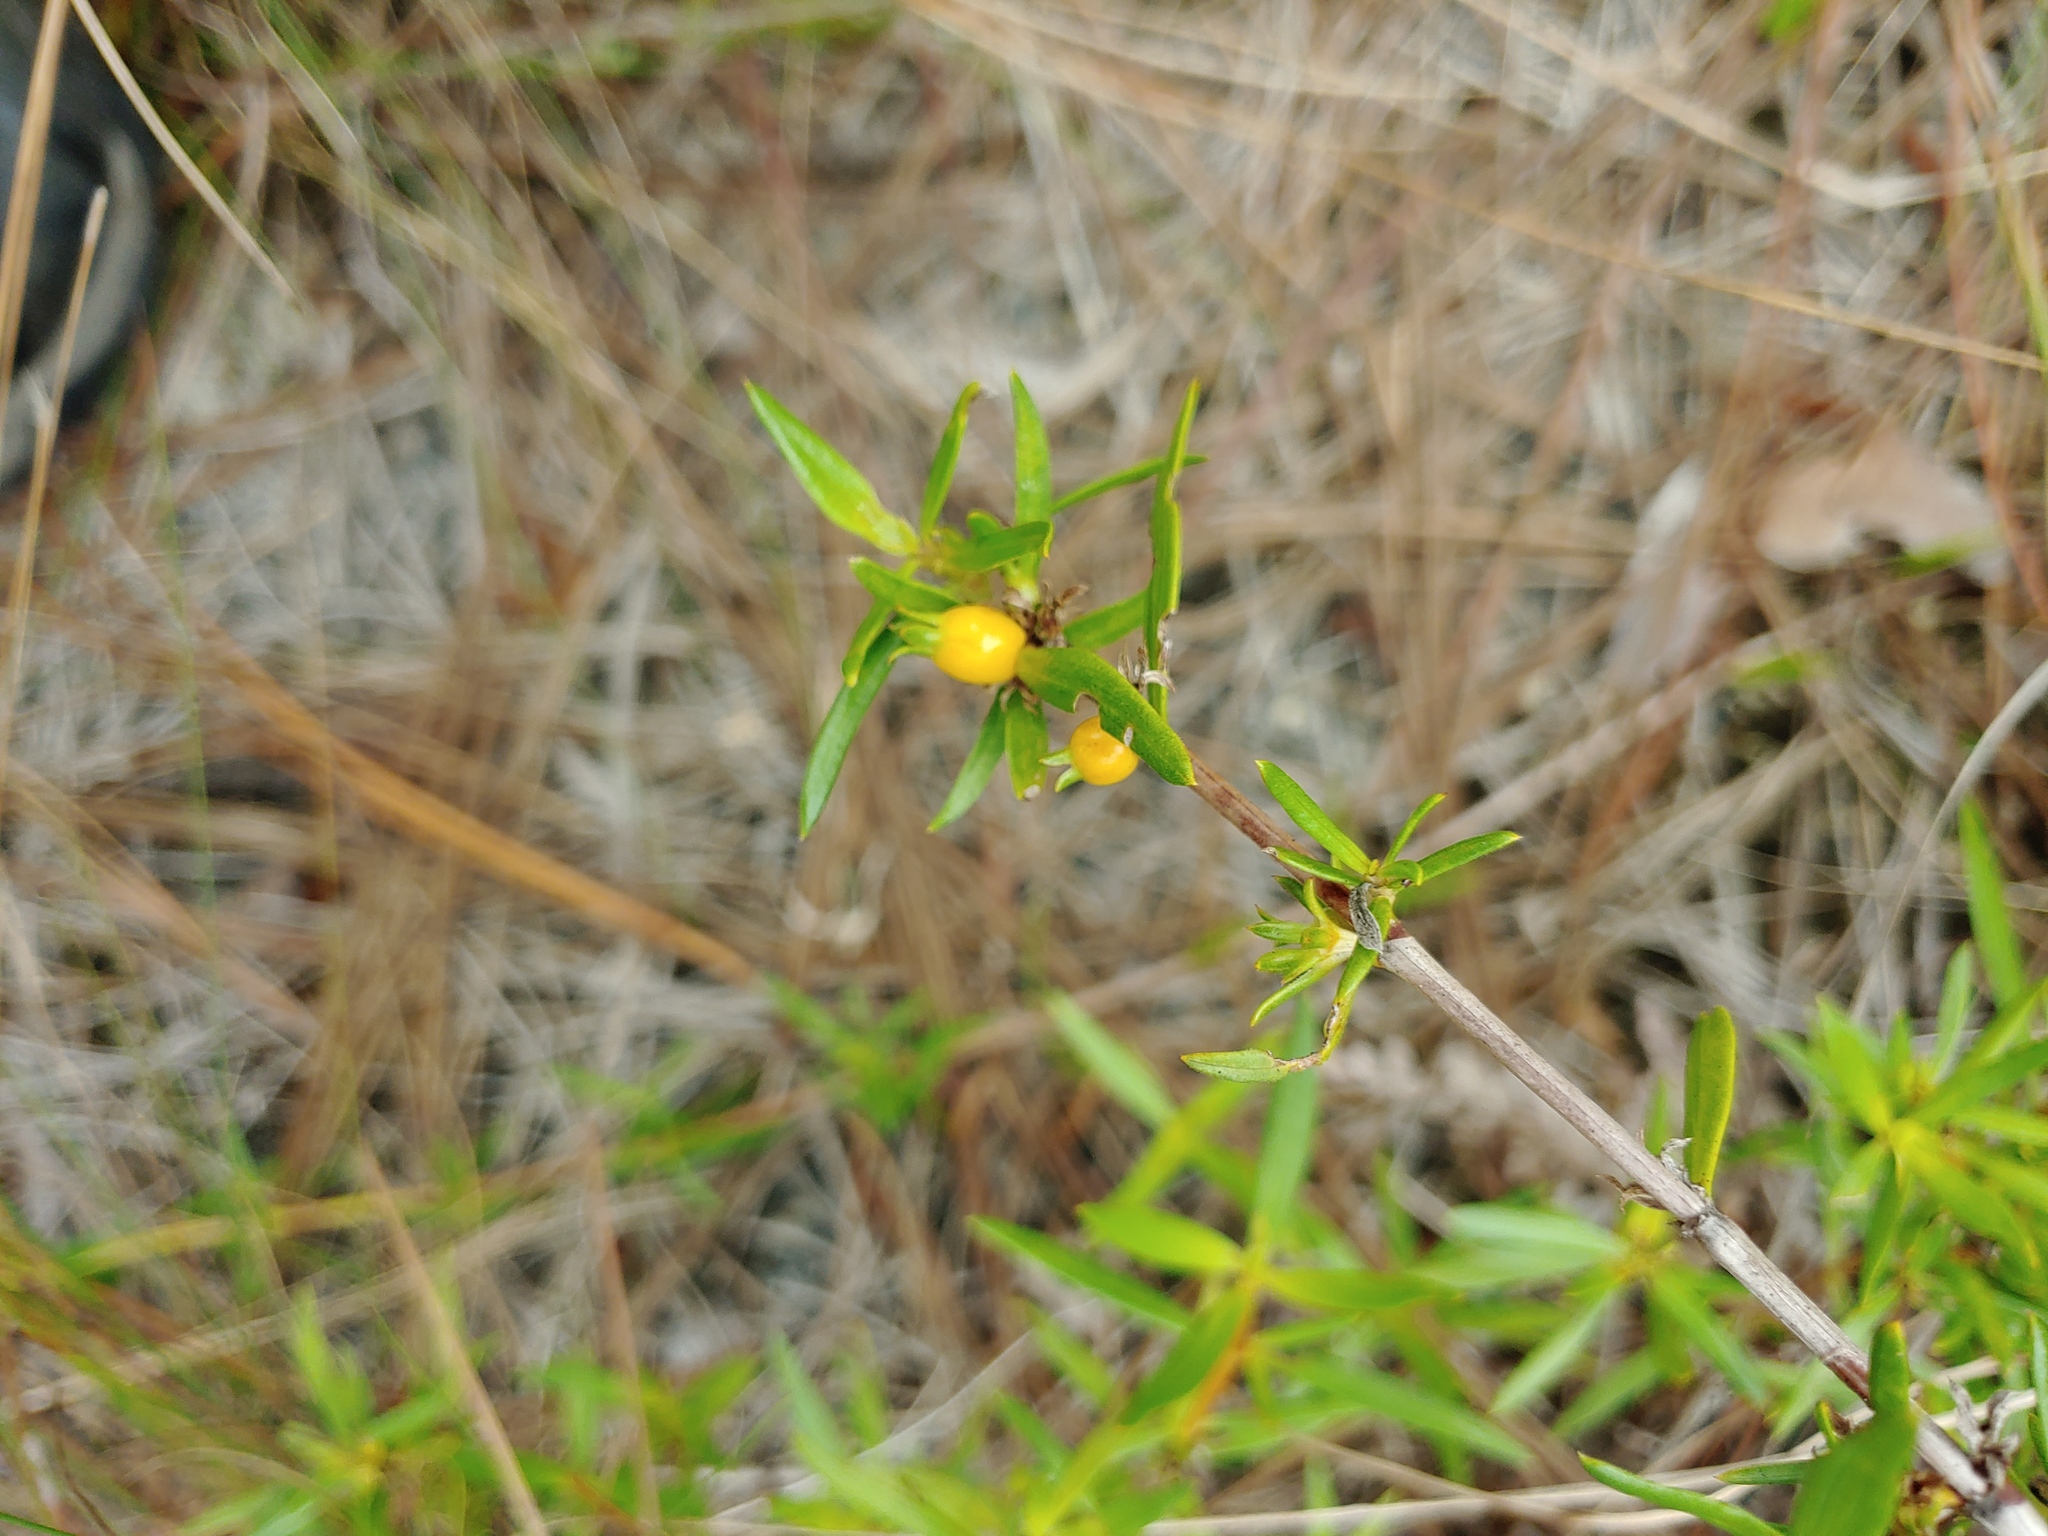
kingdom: Plantae
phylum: Tracheophyta
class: Magnoliopsida
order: Gentianales
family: Rubiaceae
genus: Ernodea
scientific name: Ernodea littoralis
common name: Beach creeper
